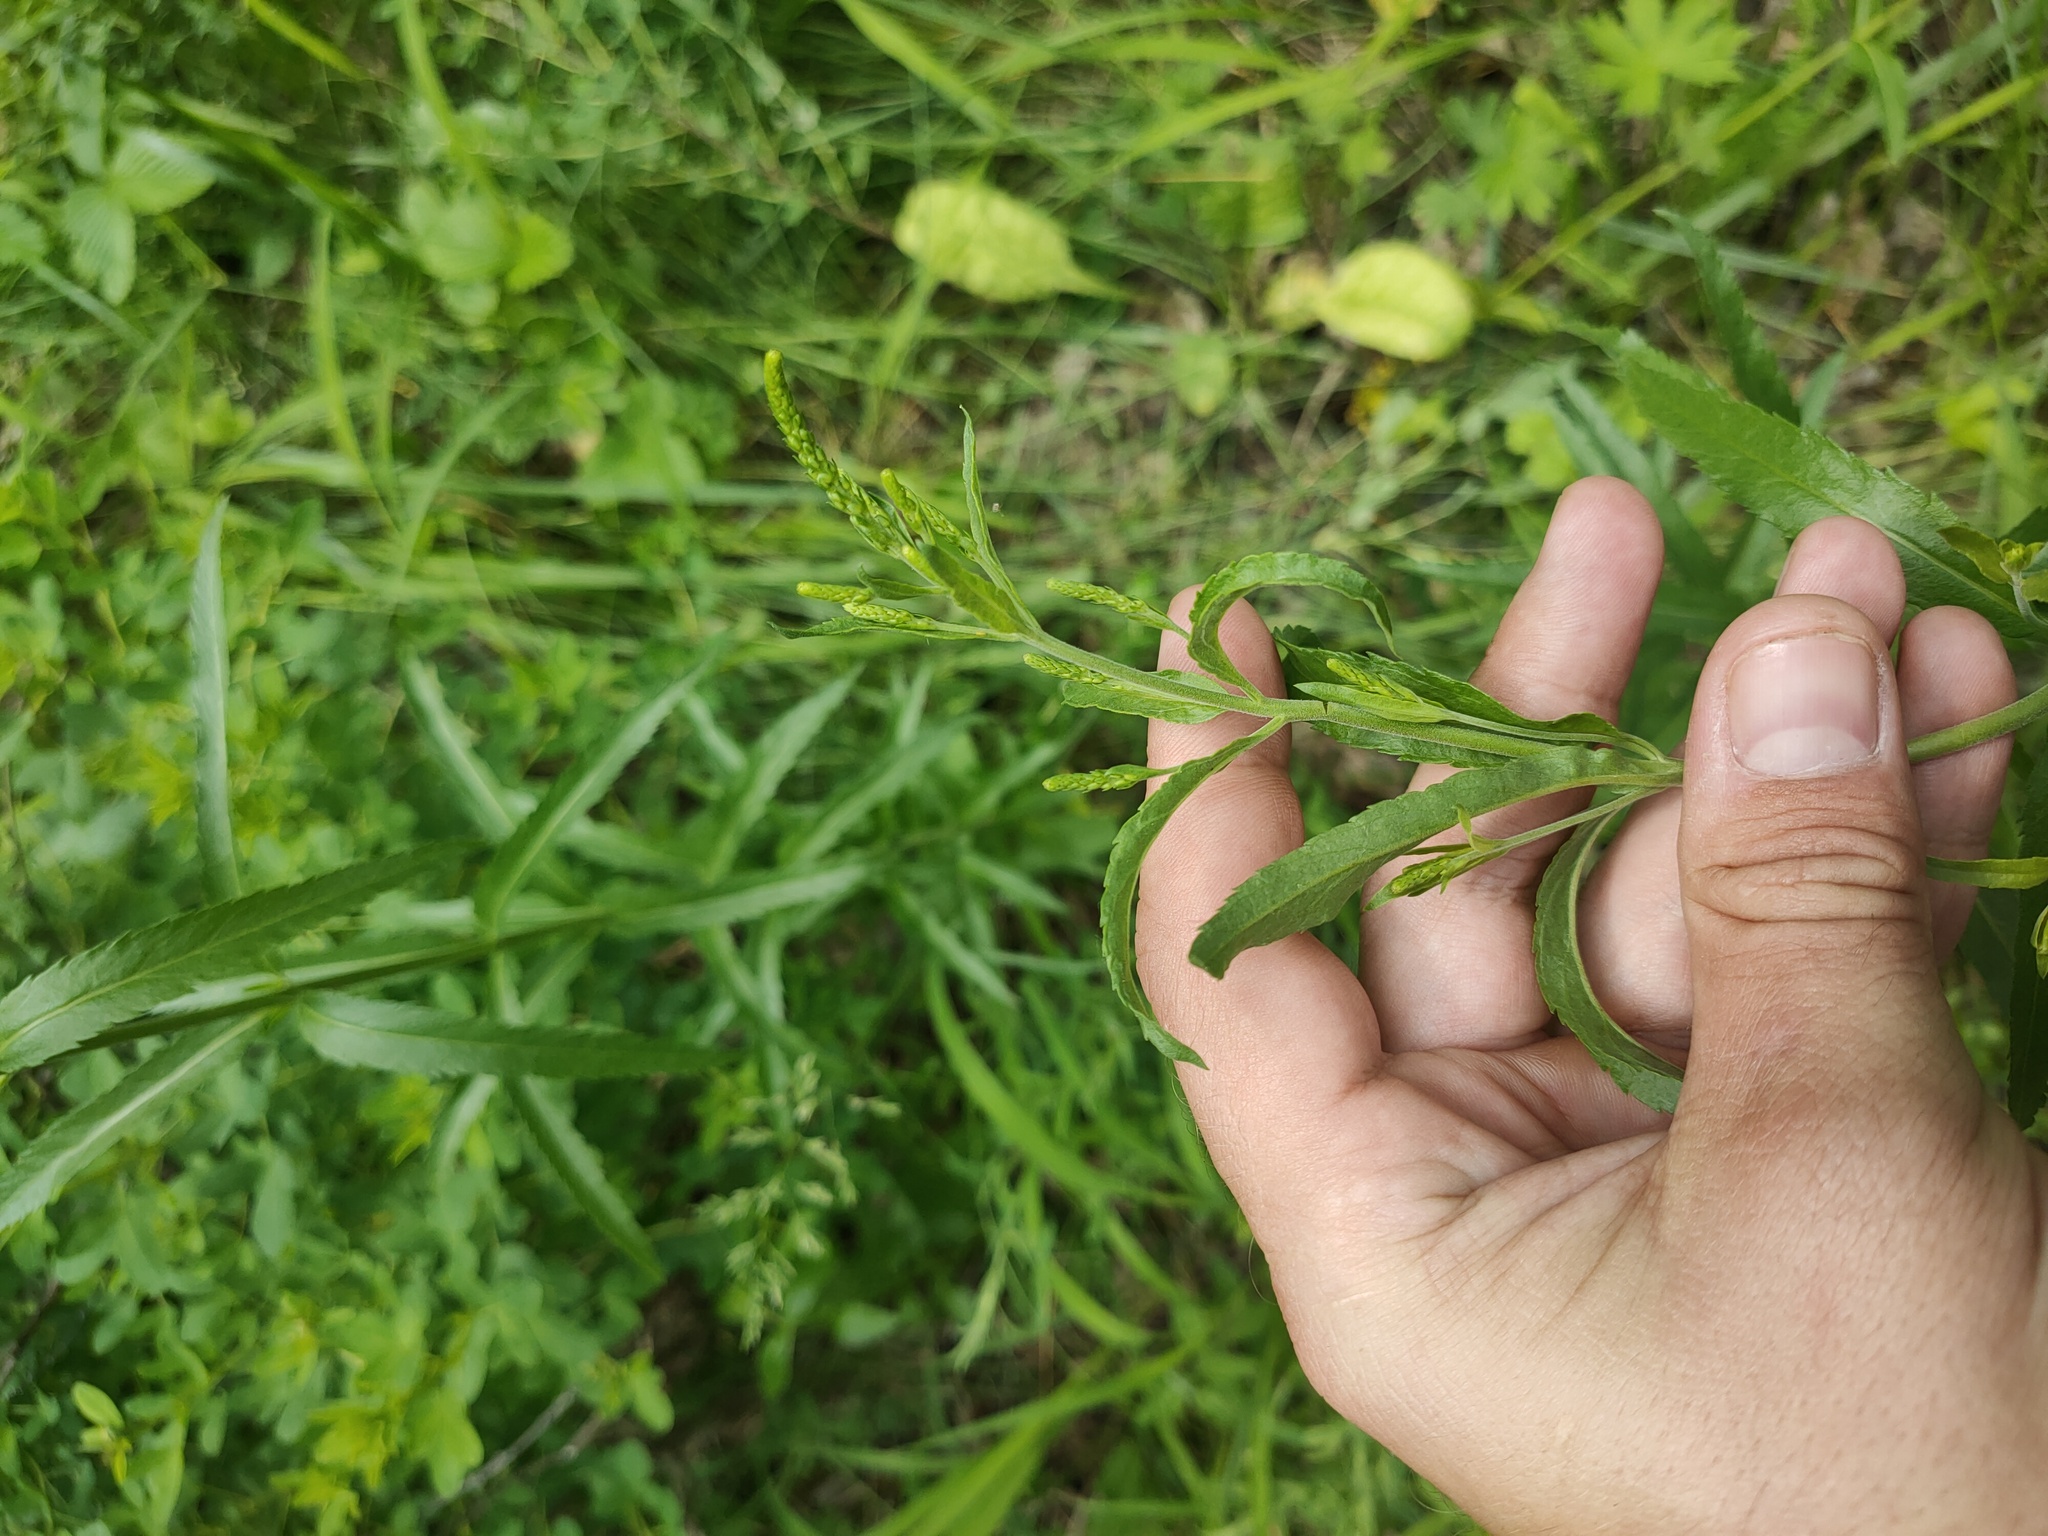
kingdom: Plantae
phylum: Tracheophyta
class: Magnoliopsida
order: Lamiales
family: Plantaginaceae
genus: Veronica
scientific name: Veronica spicata
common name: Spiked speedwell
